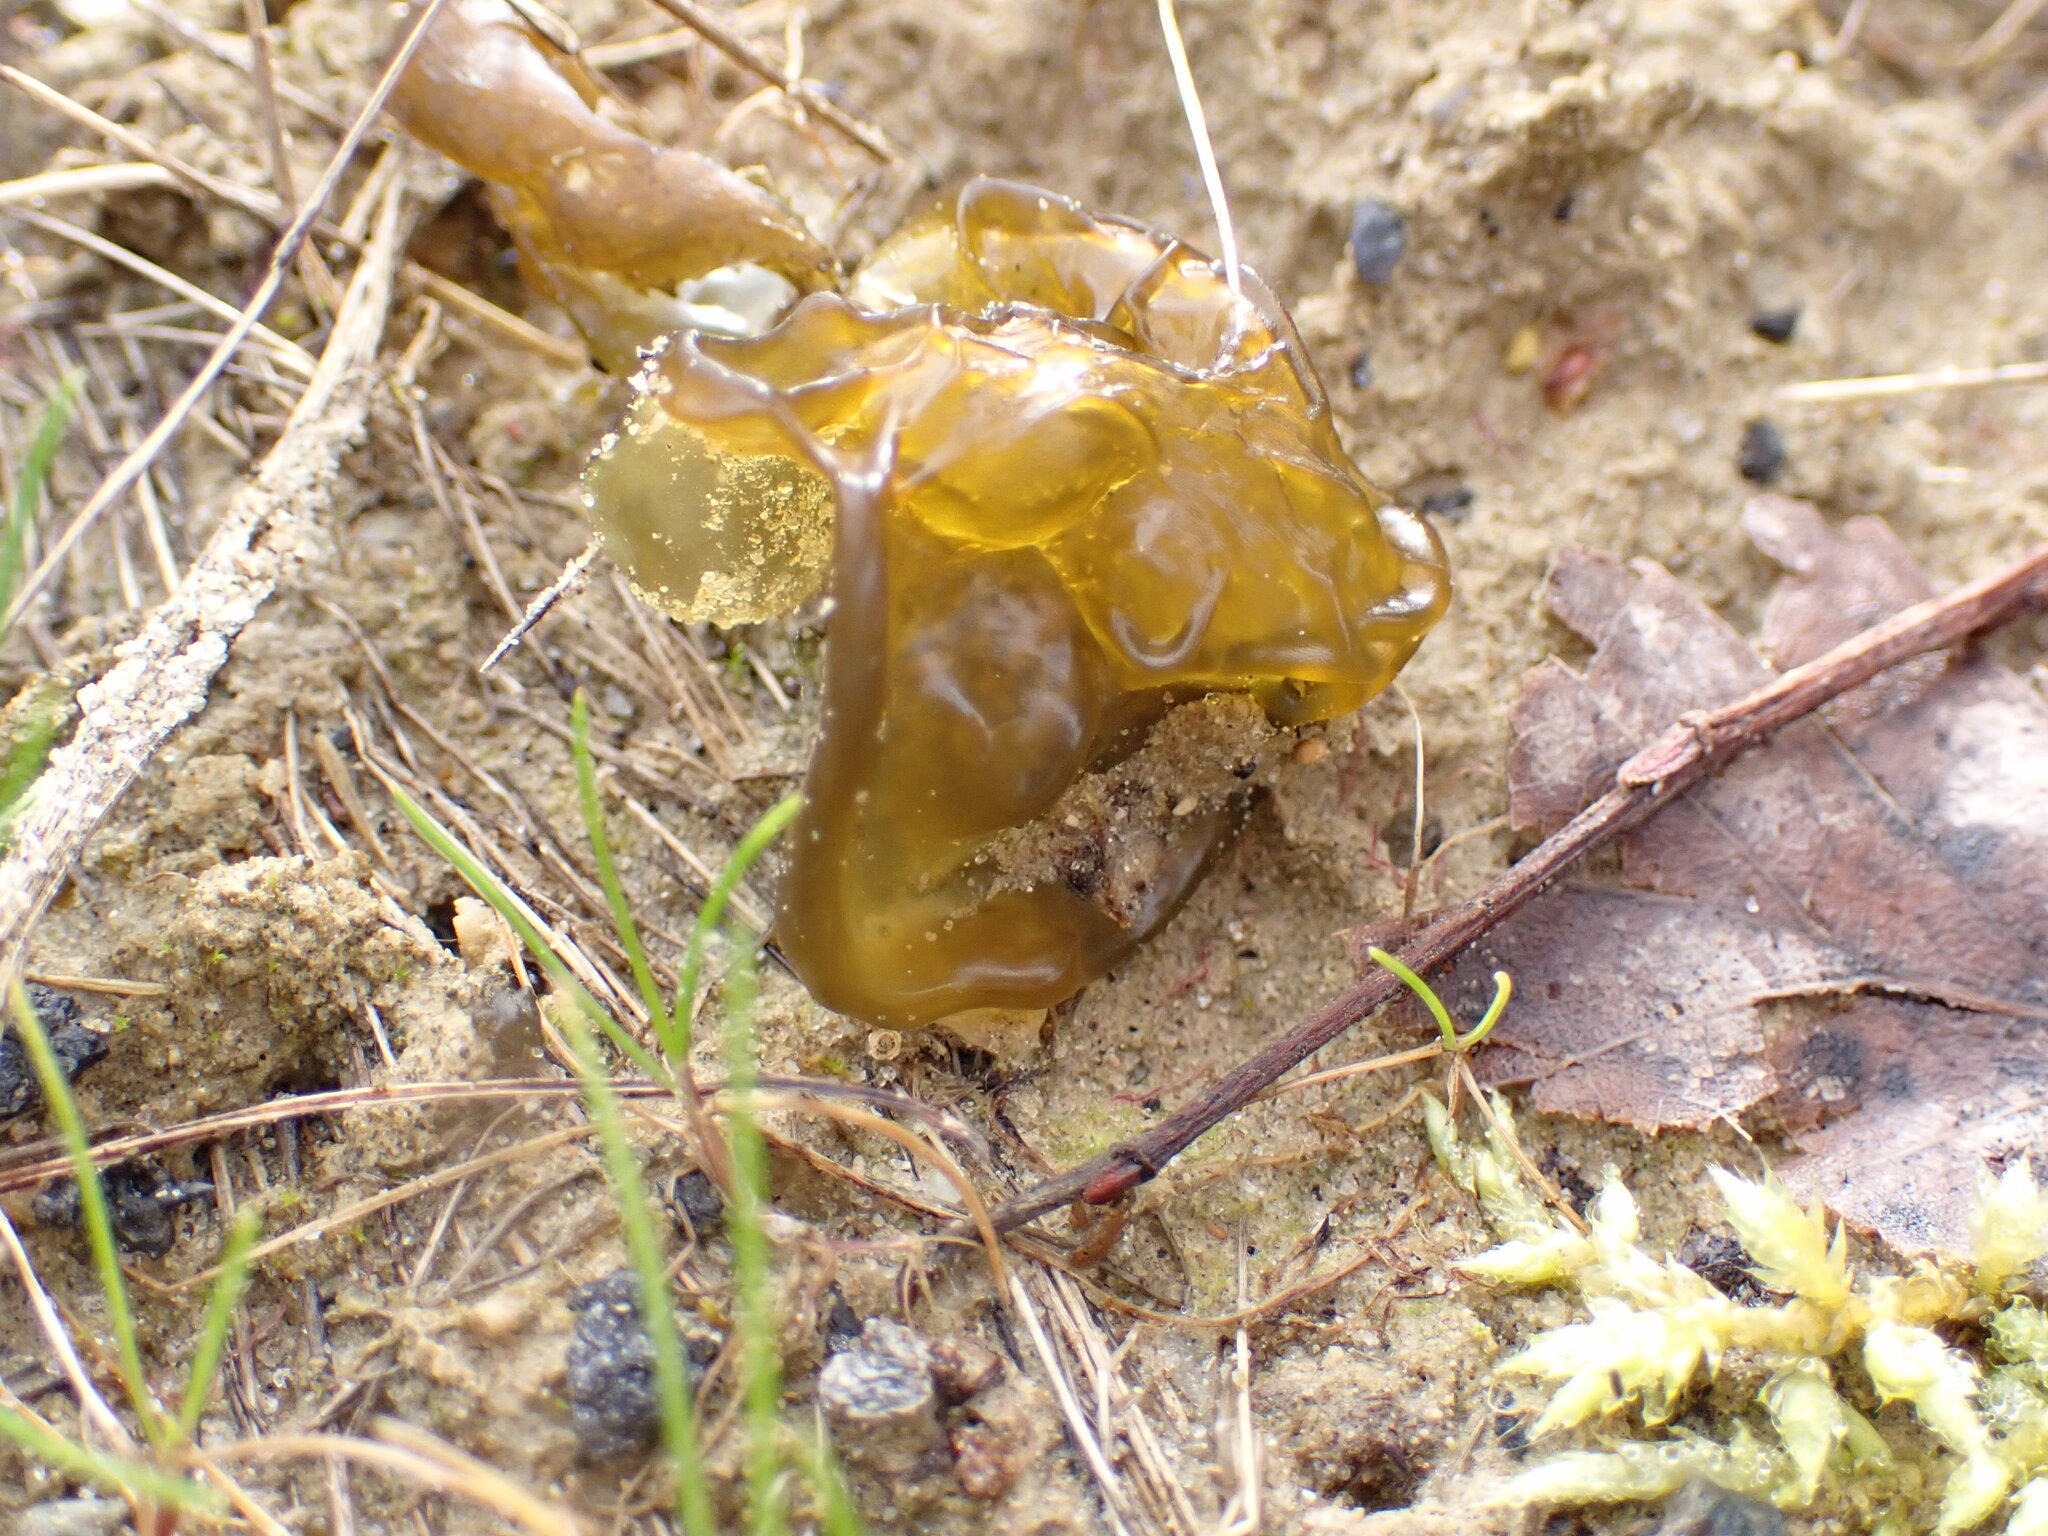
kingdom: Bacteria
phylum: Cyanobacteria
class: Cyanobacteriia
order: Cyanobacteriales
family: Nostocaceae
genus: Nostoc
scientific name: Nostoc commune
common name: Star jelly
